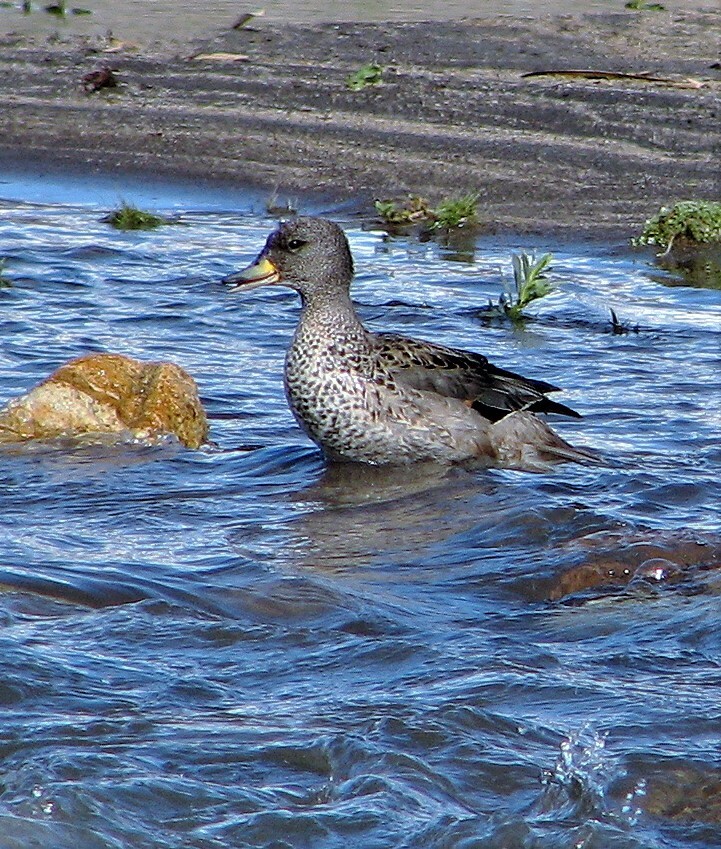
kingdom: Animalia
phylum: Chordata
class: Aves
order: Anseriformes
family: Anatidae
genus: Anas
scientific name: Anas flavirostris
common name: Yellow-billed teal
